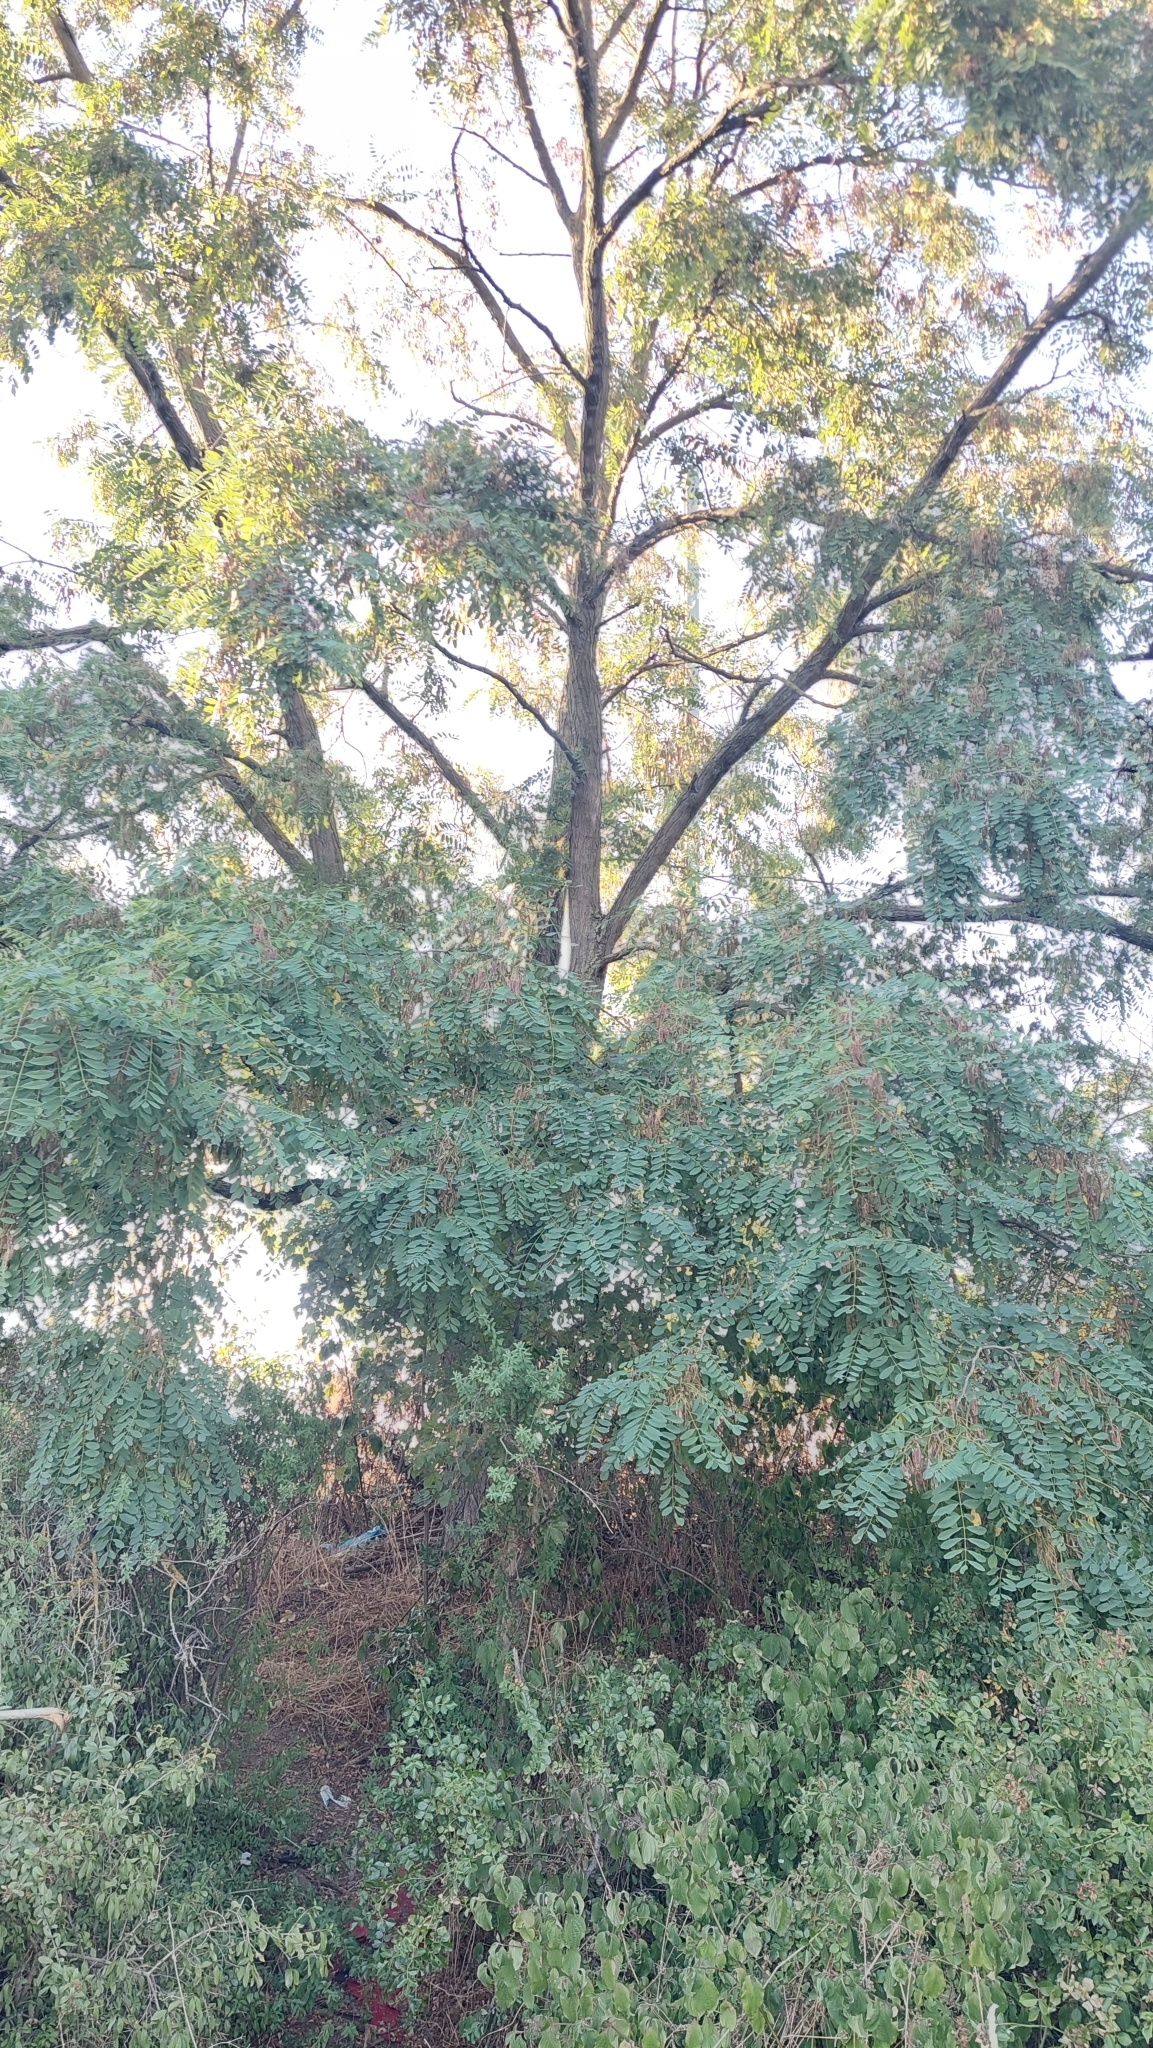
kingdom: Plantae
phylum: Tracheophyta
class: Magnoliopsida
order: Fabales
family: Fabaceae
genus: Robinia
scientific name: Robinia pseudoacacia
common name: Black locust
